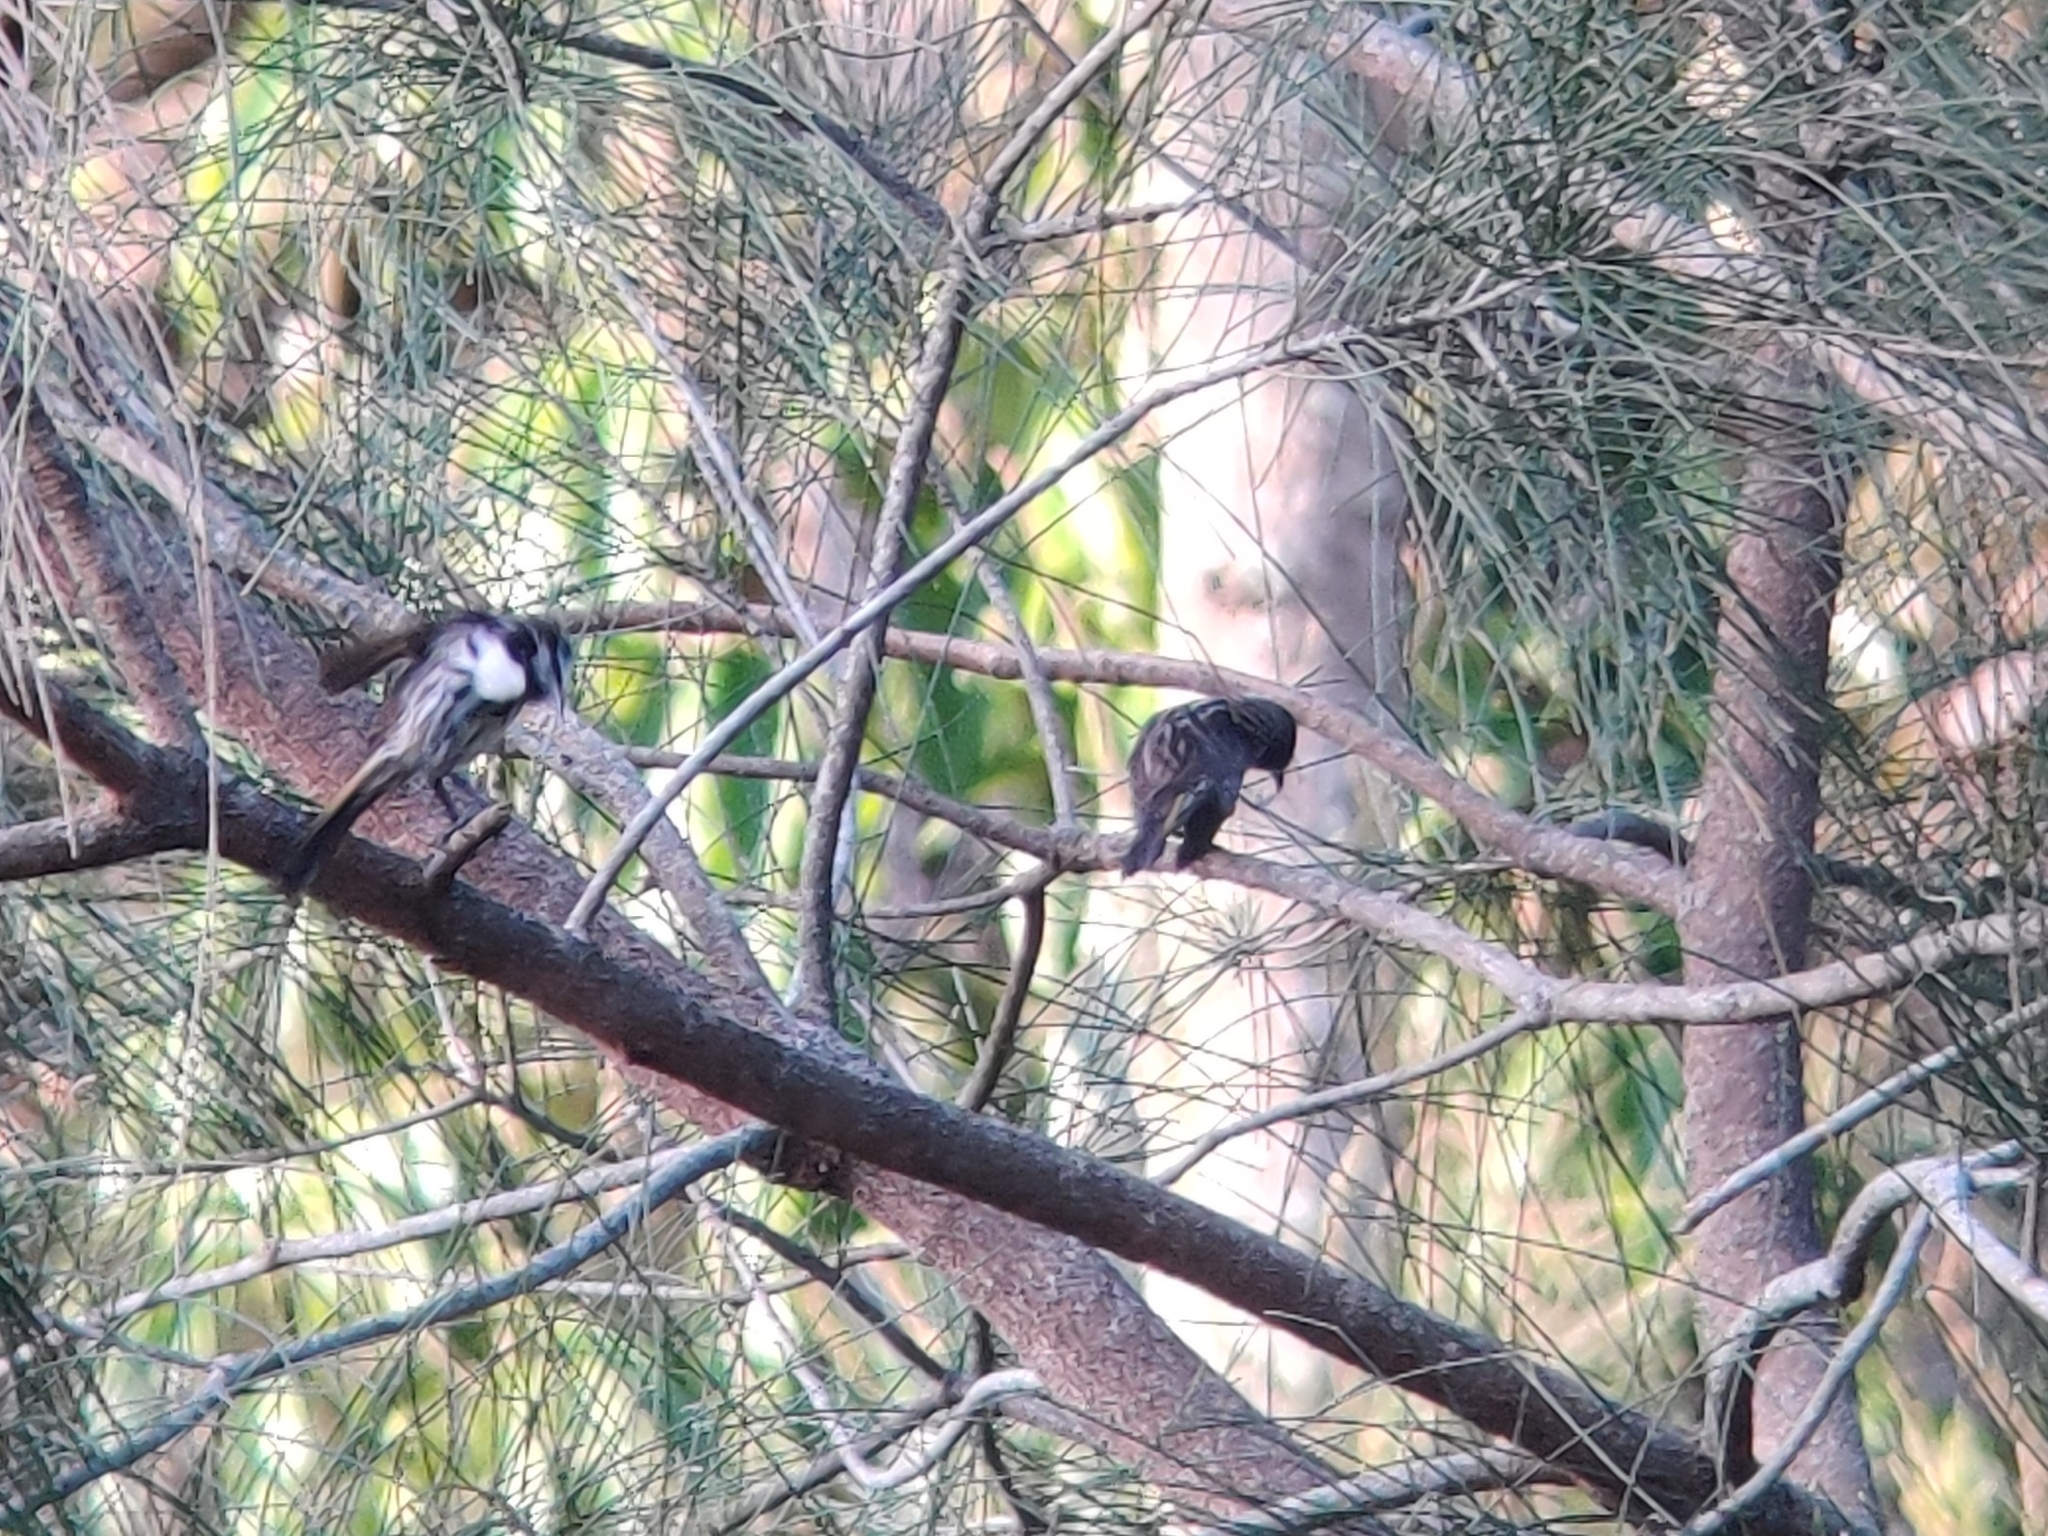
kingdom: Animalia
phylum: Chordata
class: Aves
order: Passeriformes
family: Meliphagidae
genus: Phylidonyris
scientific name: Phylidonyris niger
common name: White-cheeked honeyeater
